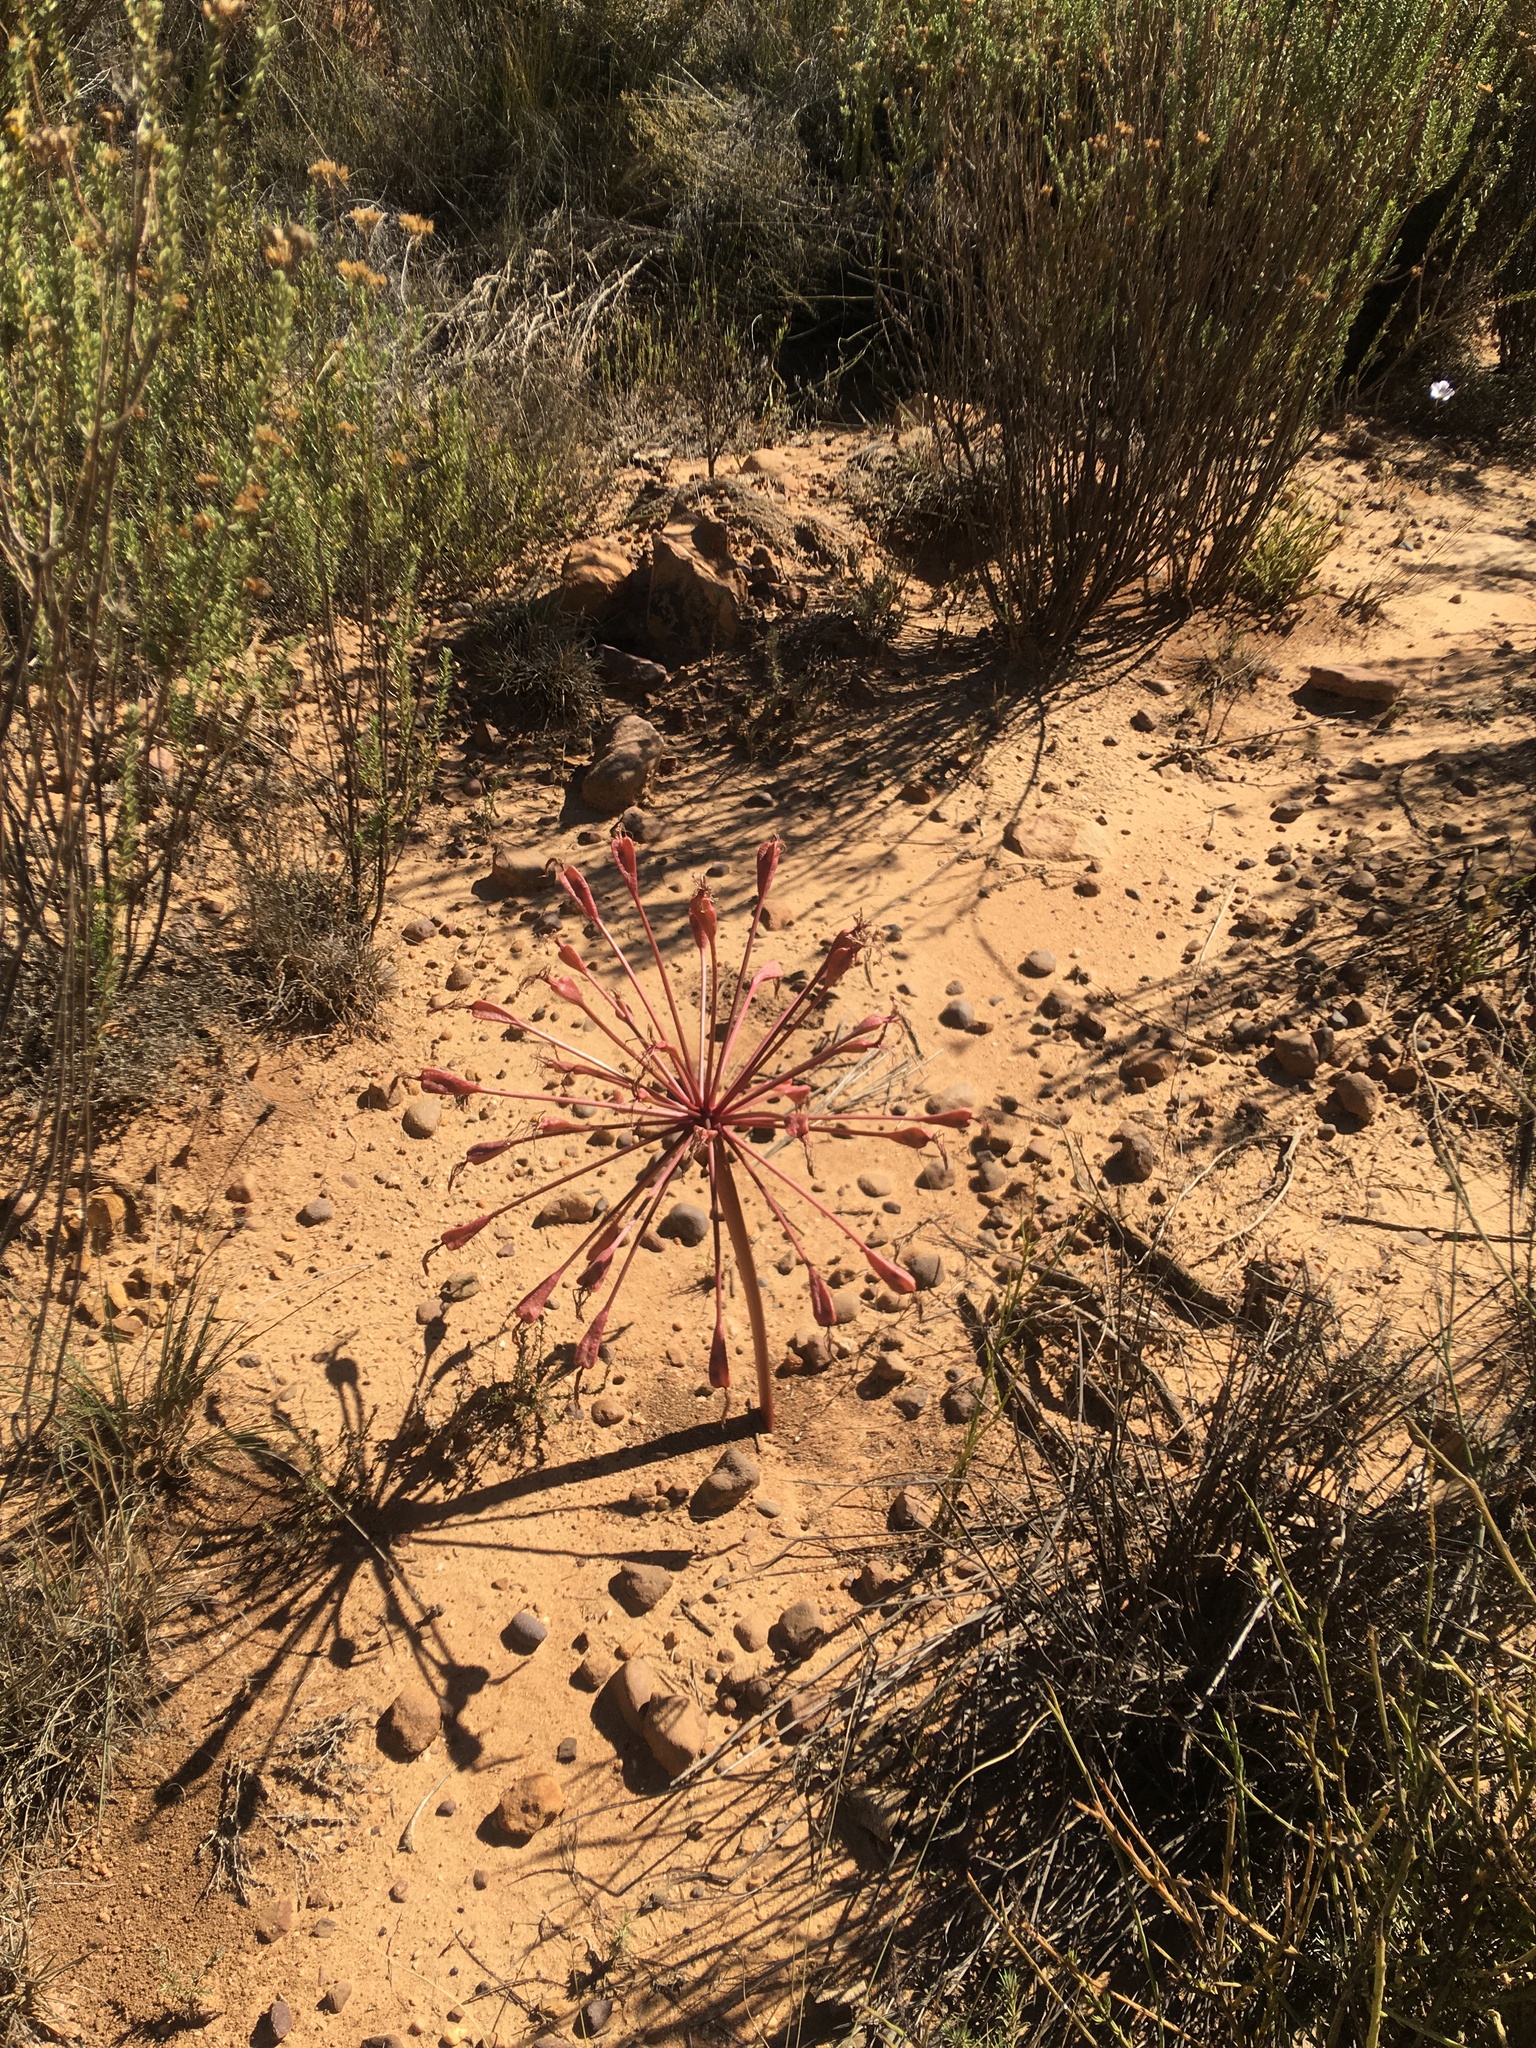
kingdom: Plantae
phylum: Tracheophyta
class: Liliopsida
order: Asparagales
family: Amaryllidaceae
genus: Brunsvigia
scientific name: Brunsvigia nervosa
